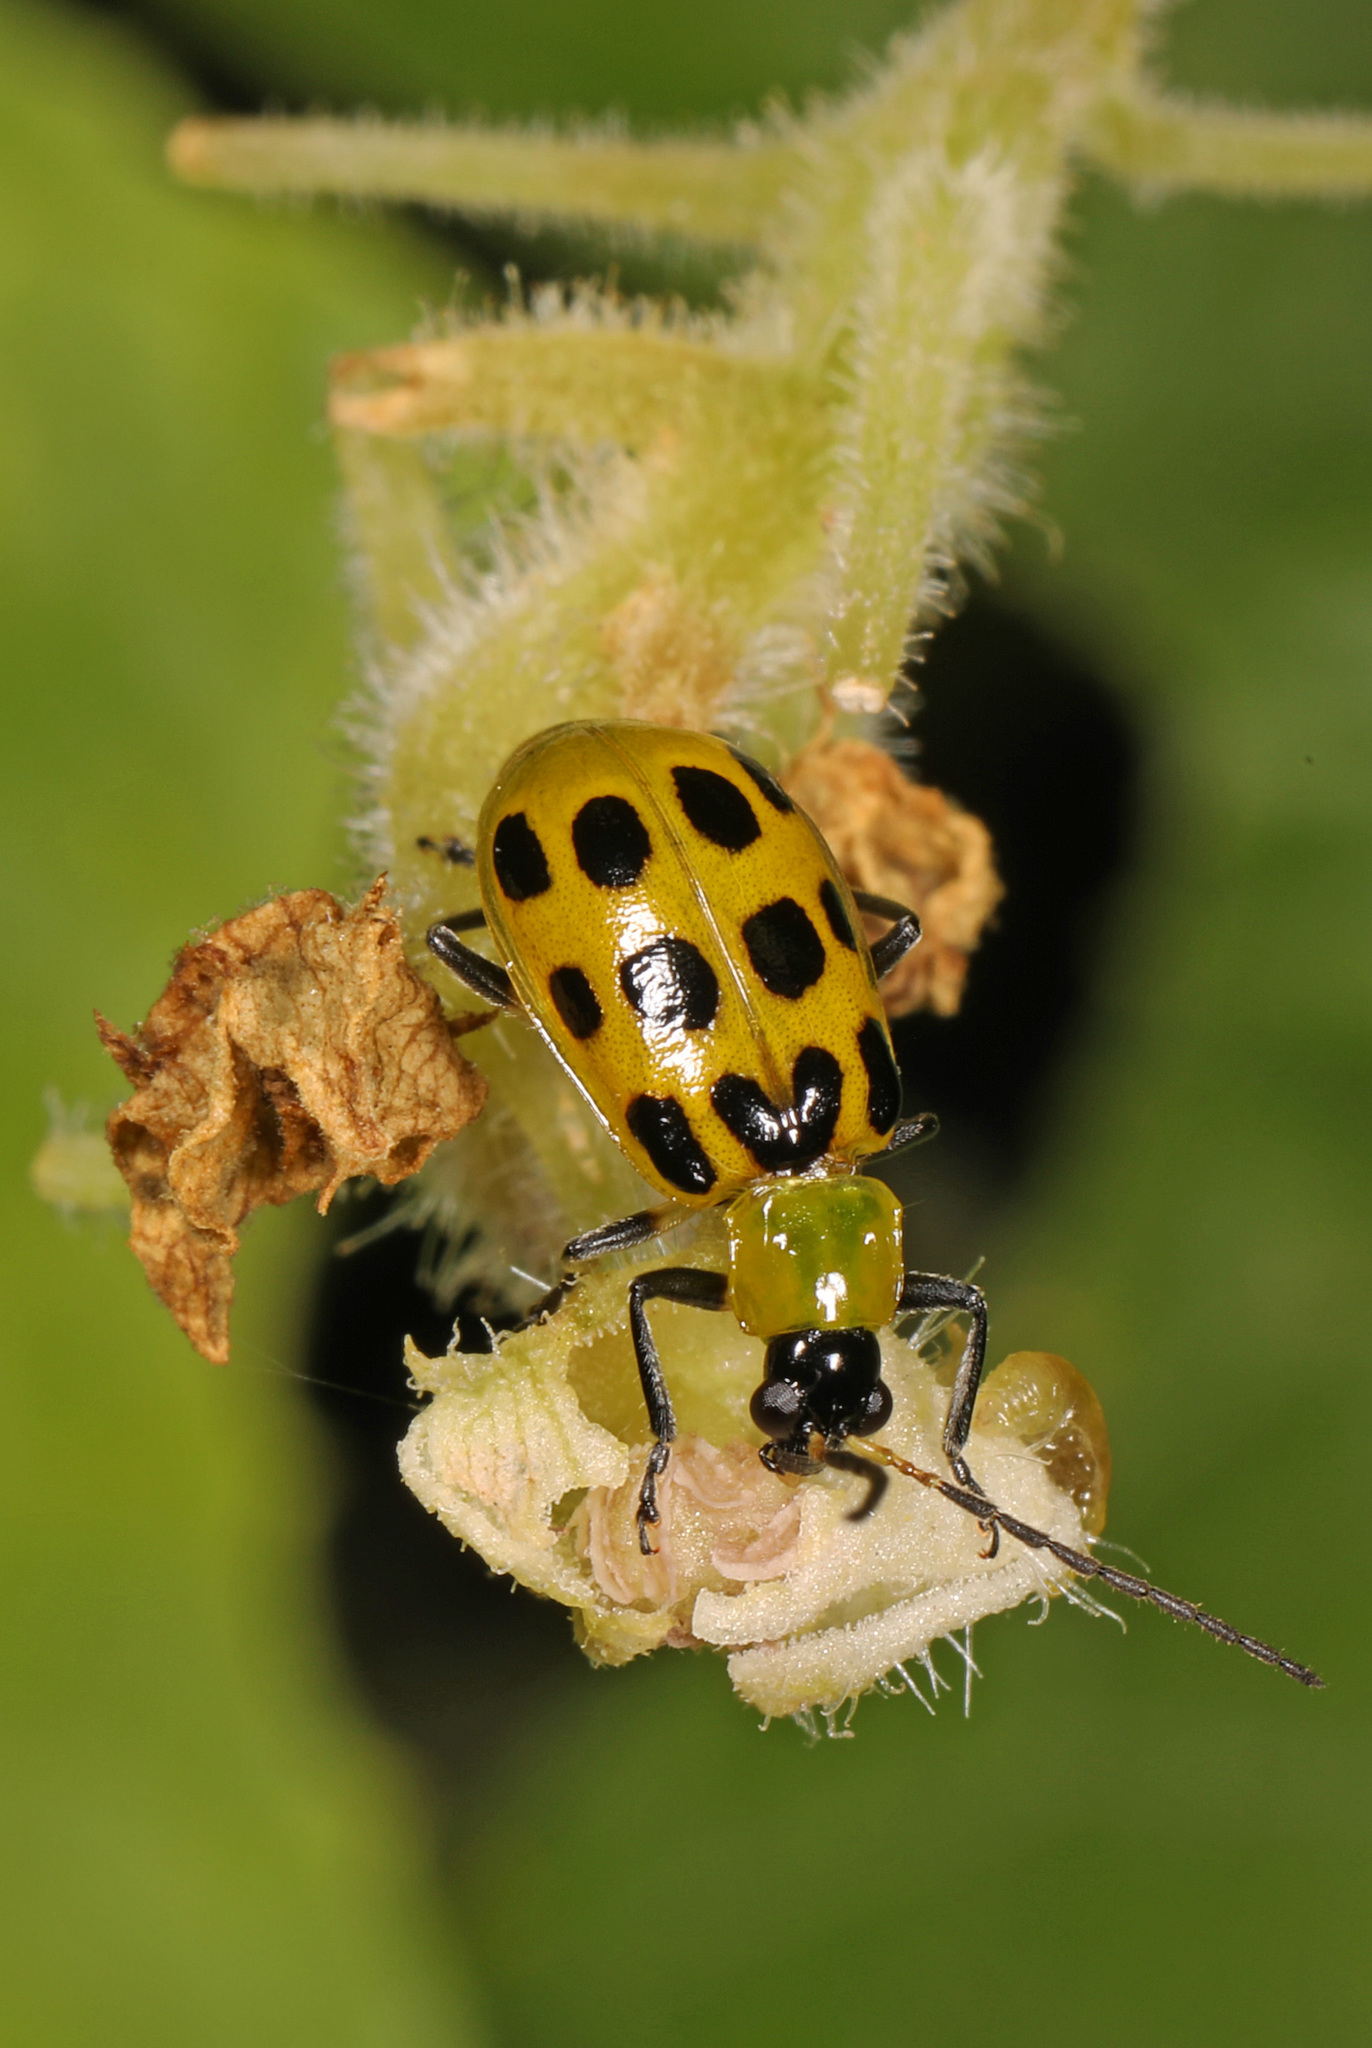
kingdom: Animalia
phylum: Arthropoda
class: Insecta
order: Coleoptera
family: Chrysomelidae
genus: Diabrotica
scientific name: Diabrotica undecimpunctata
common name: Spotted cucumber beetle
